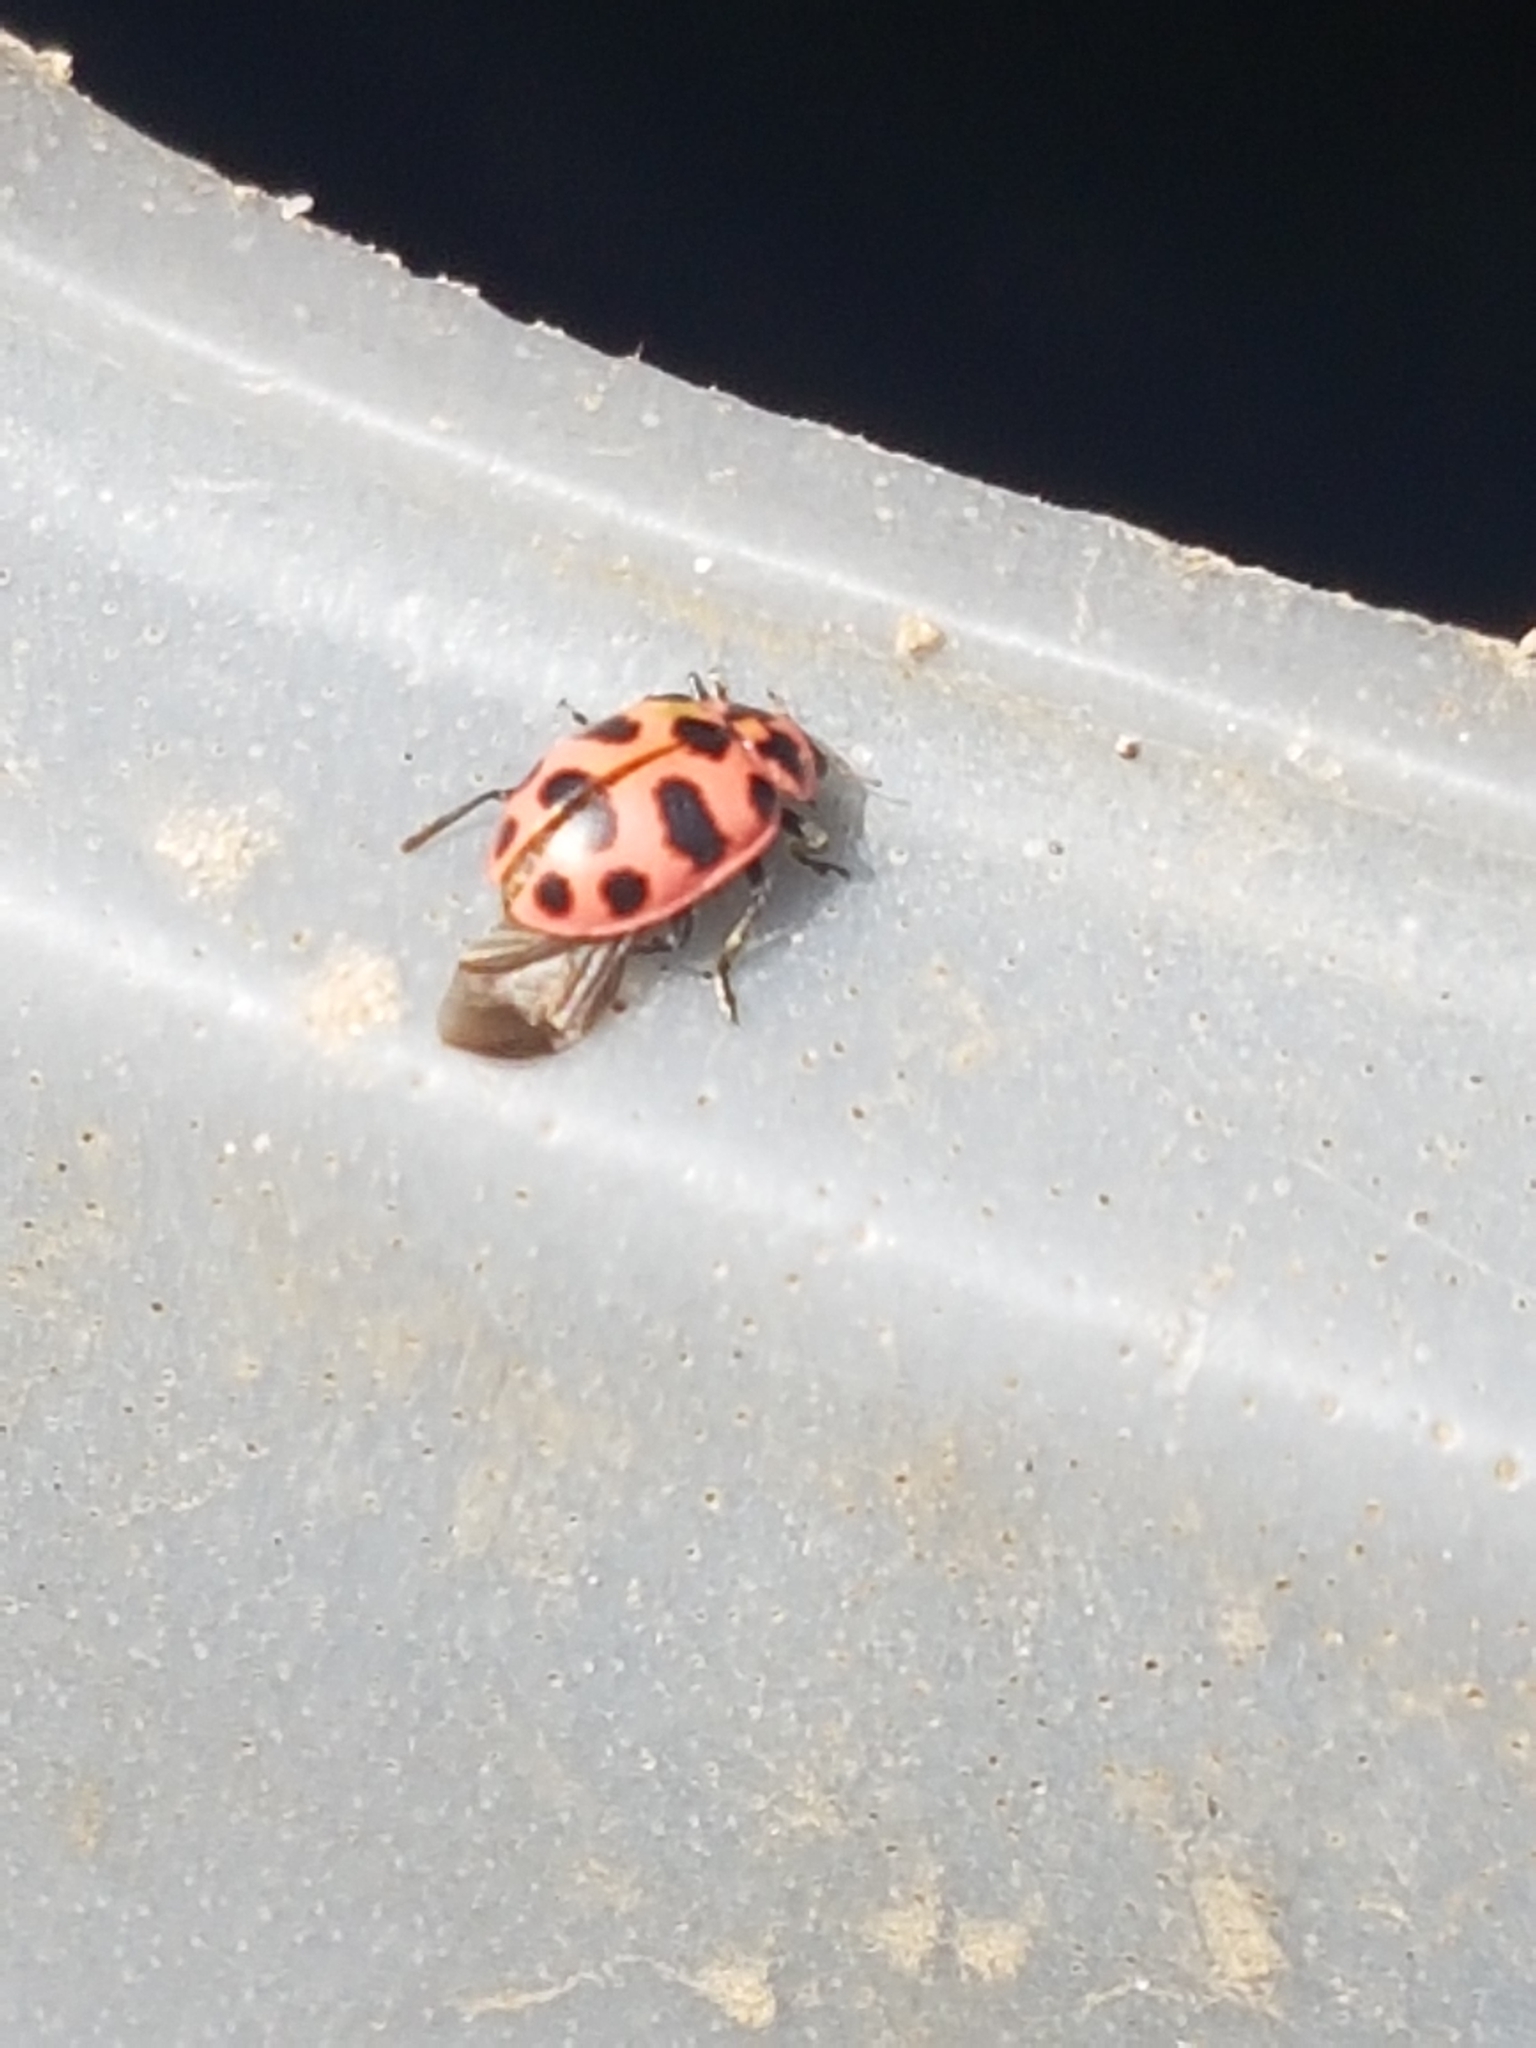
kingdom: Animalia
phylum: Arthropoda
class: Insecta
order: Coleoptera
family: Coccinellidae
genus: Coleomegilla
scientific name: Coleomegilla maculata
